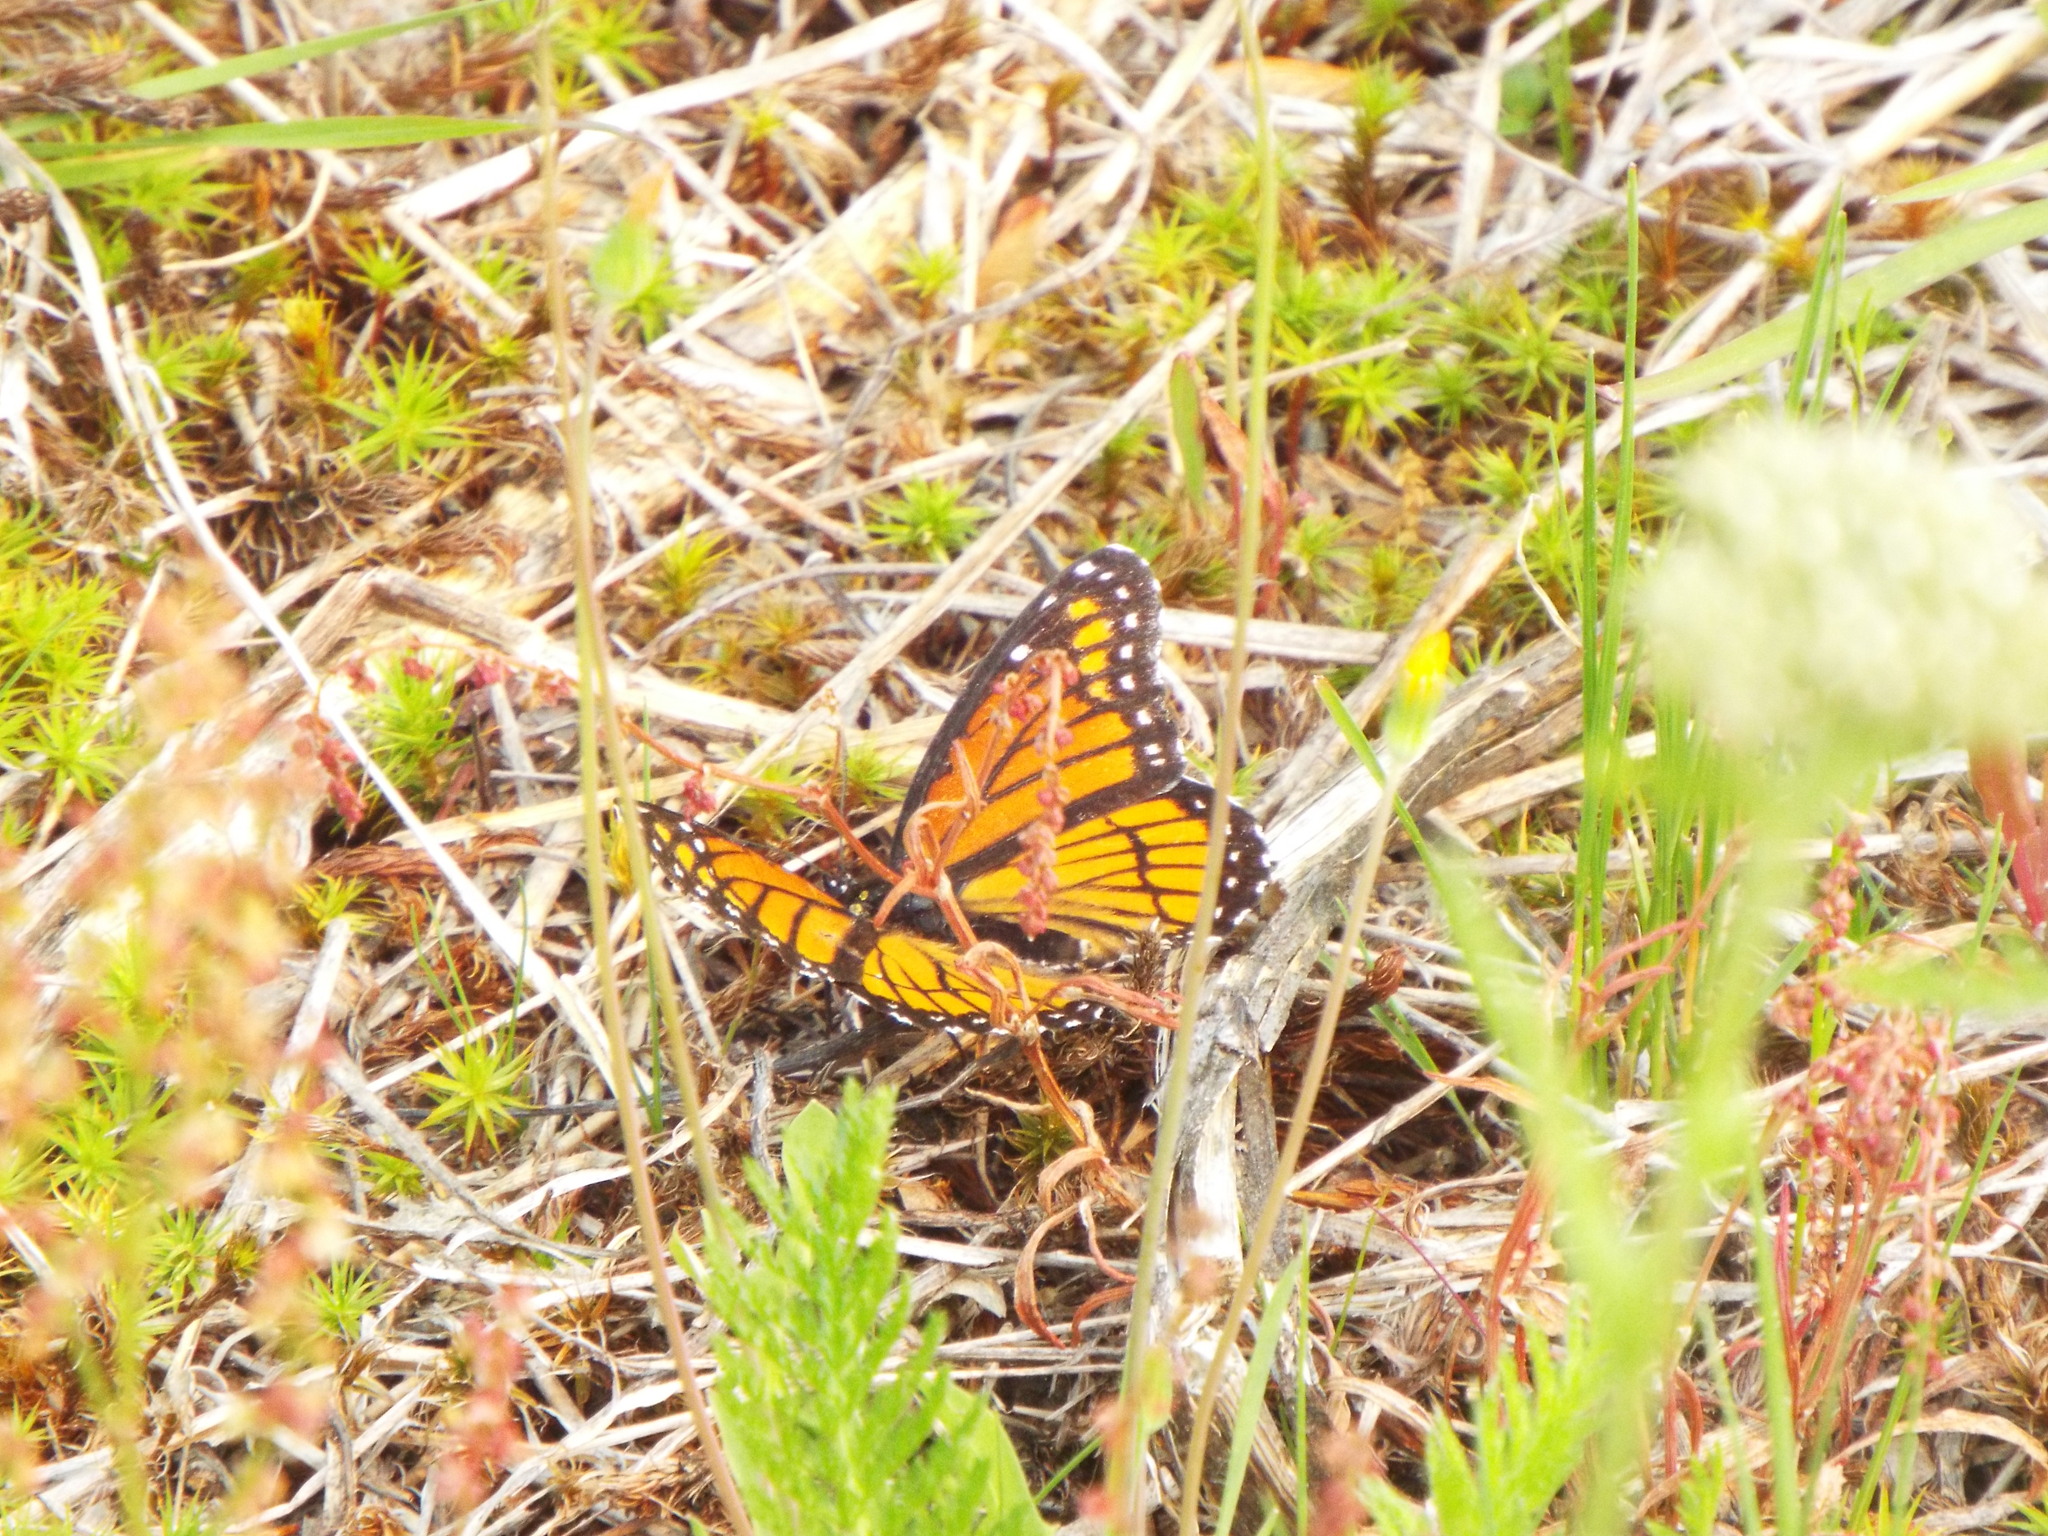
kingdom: Animalia
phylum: Arthropoda
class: Insecta
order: Lepidoptera
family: Nymphalidae
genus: Limenitis
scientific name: Limenitis archippus
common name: Viceroy
